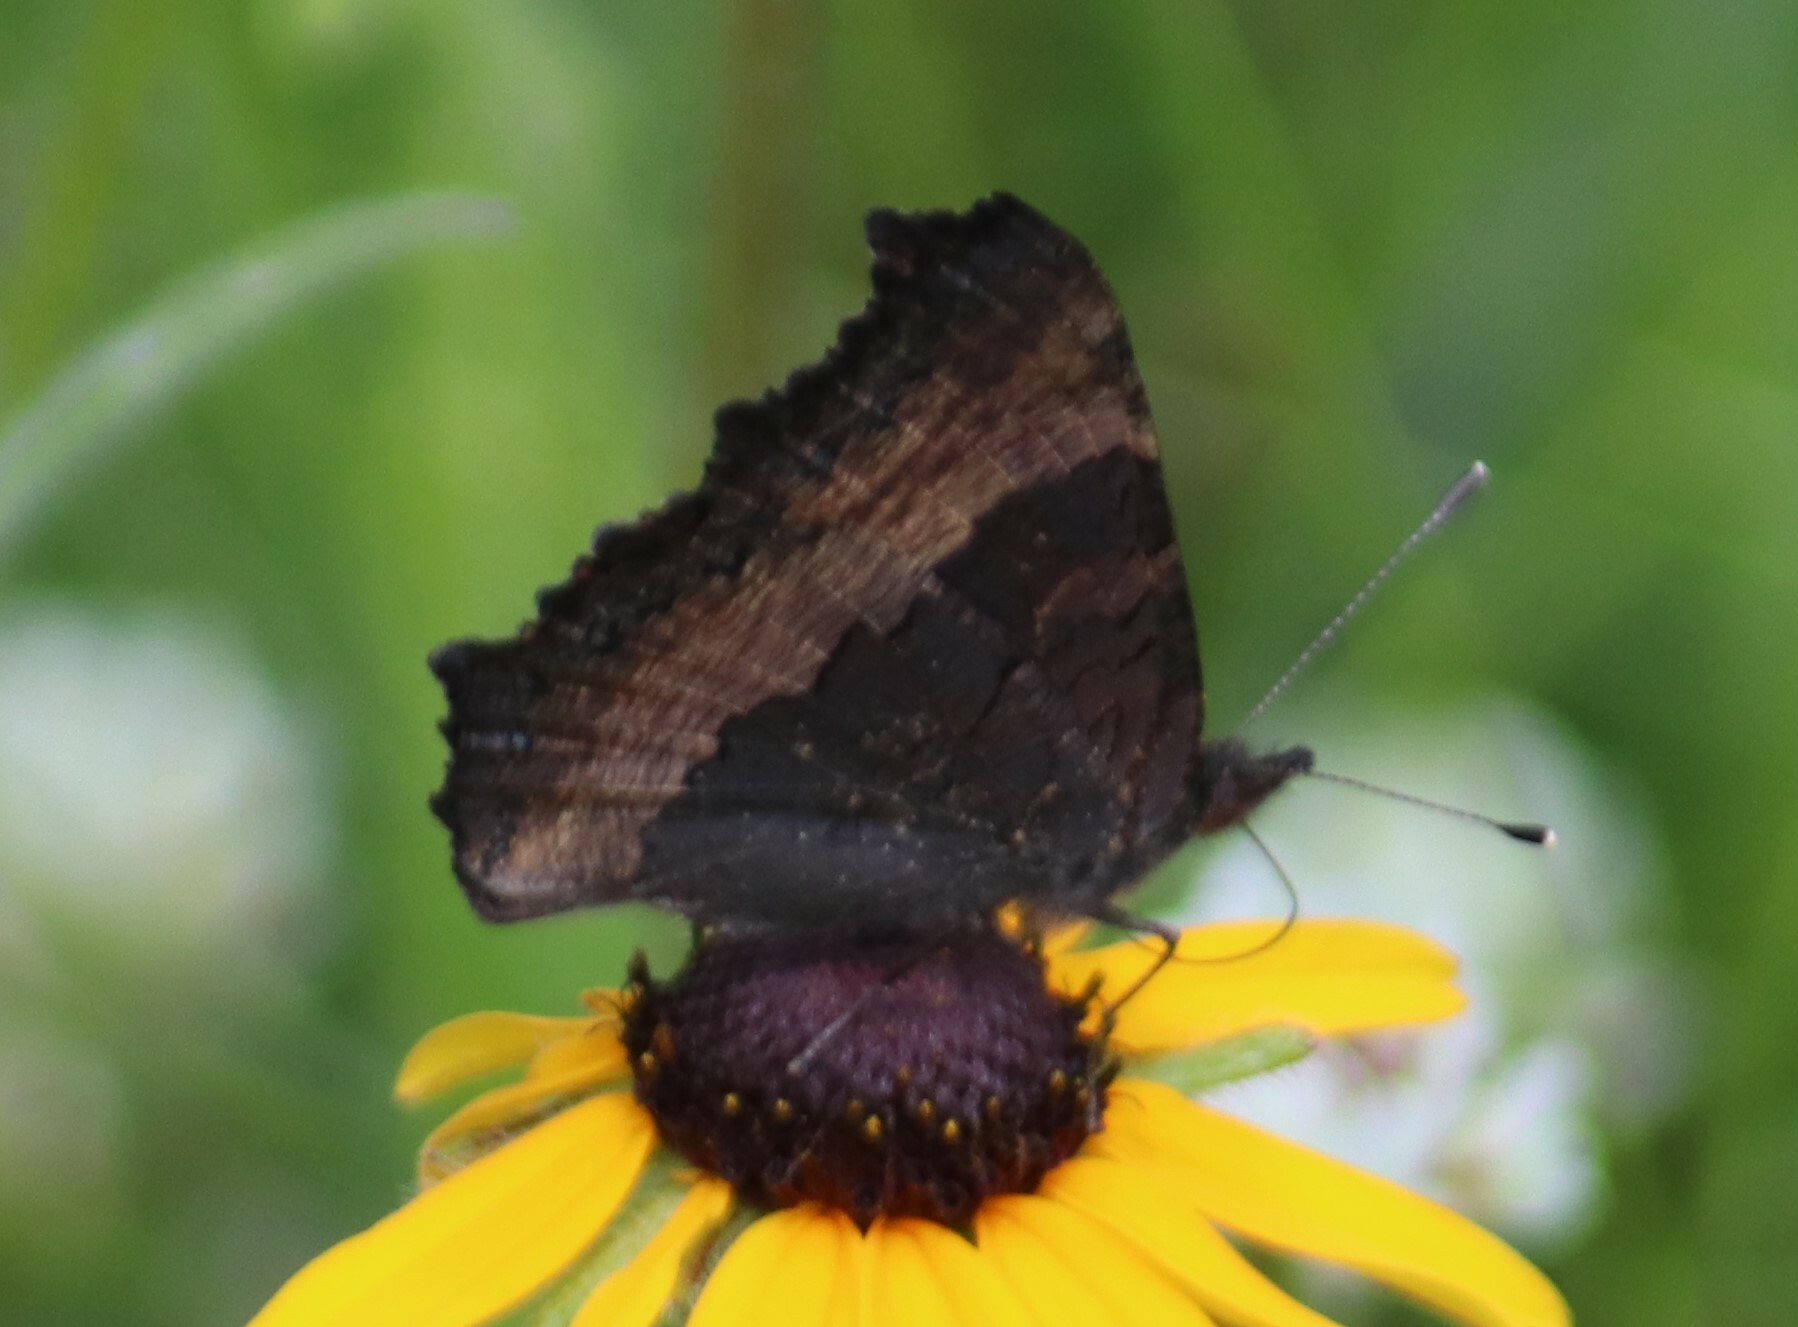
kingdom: Animalia
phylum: Arthropoda
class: Insecta
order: Lepidoptera
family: Nymphalidae
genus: Aglais
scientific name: Aglais milberti
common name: Milbert's tortoiseshell
